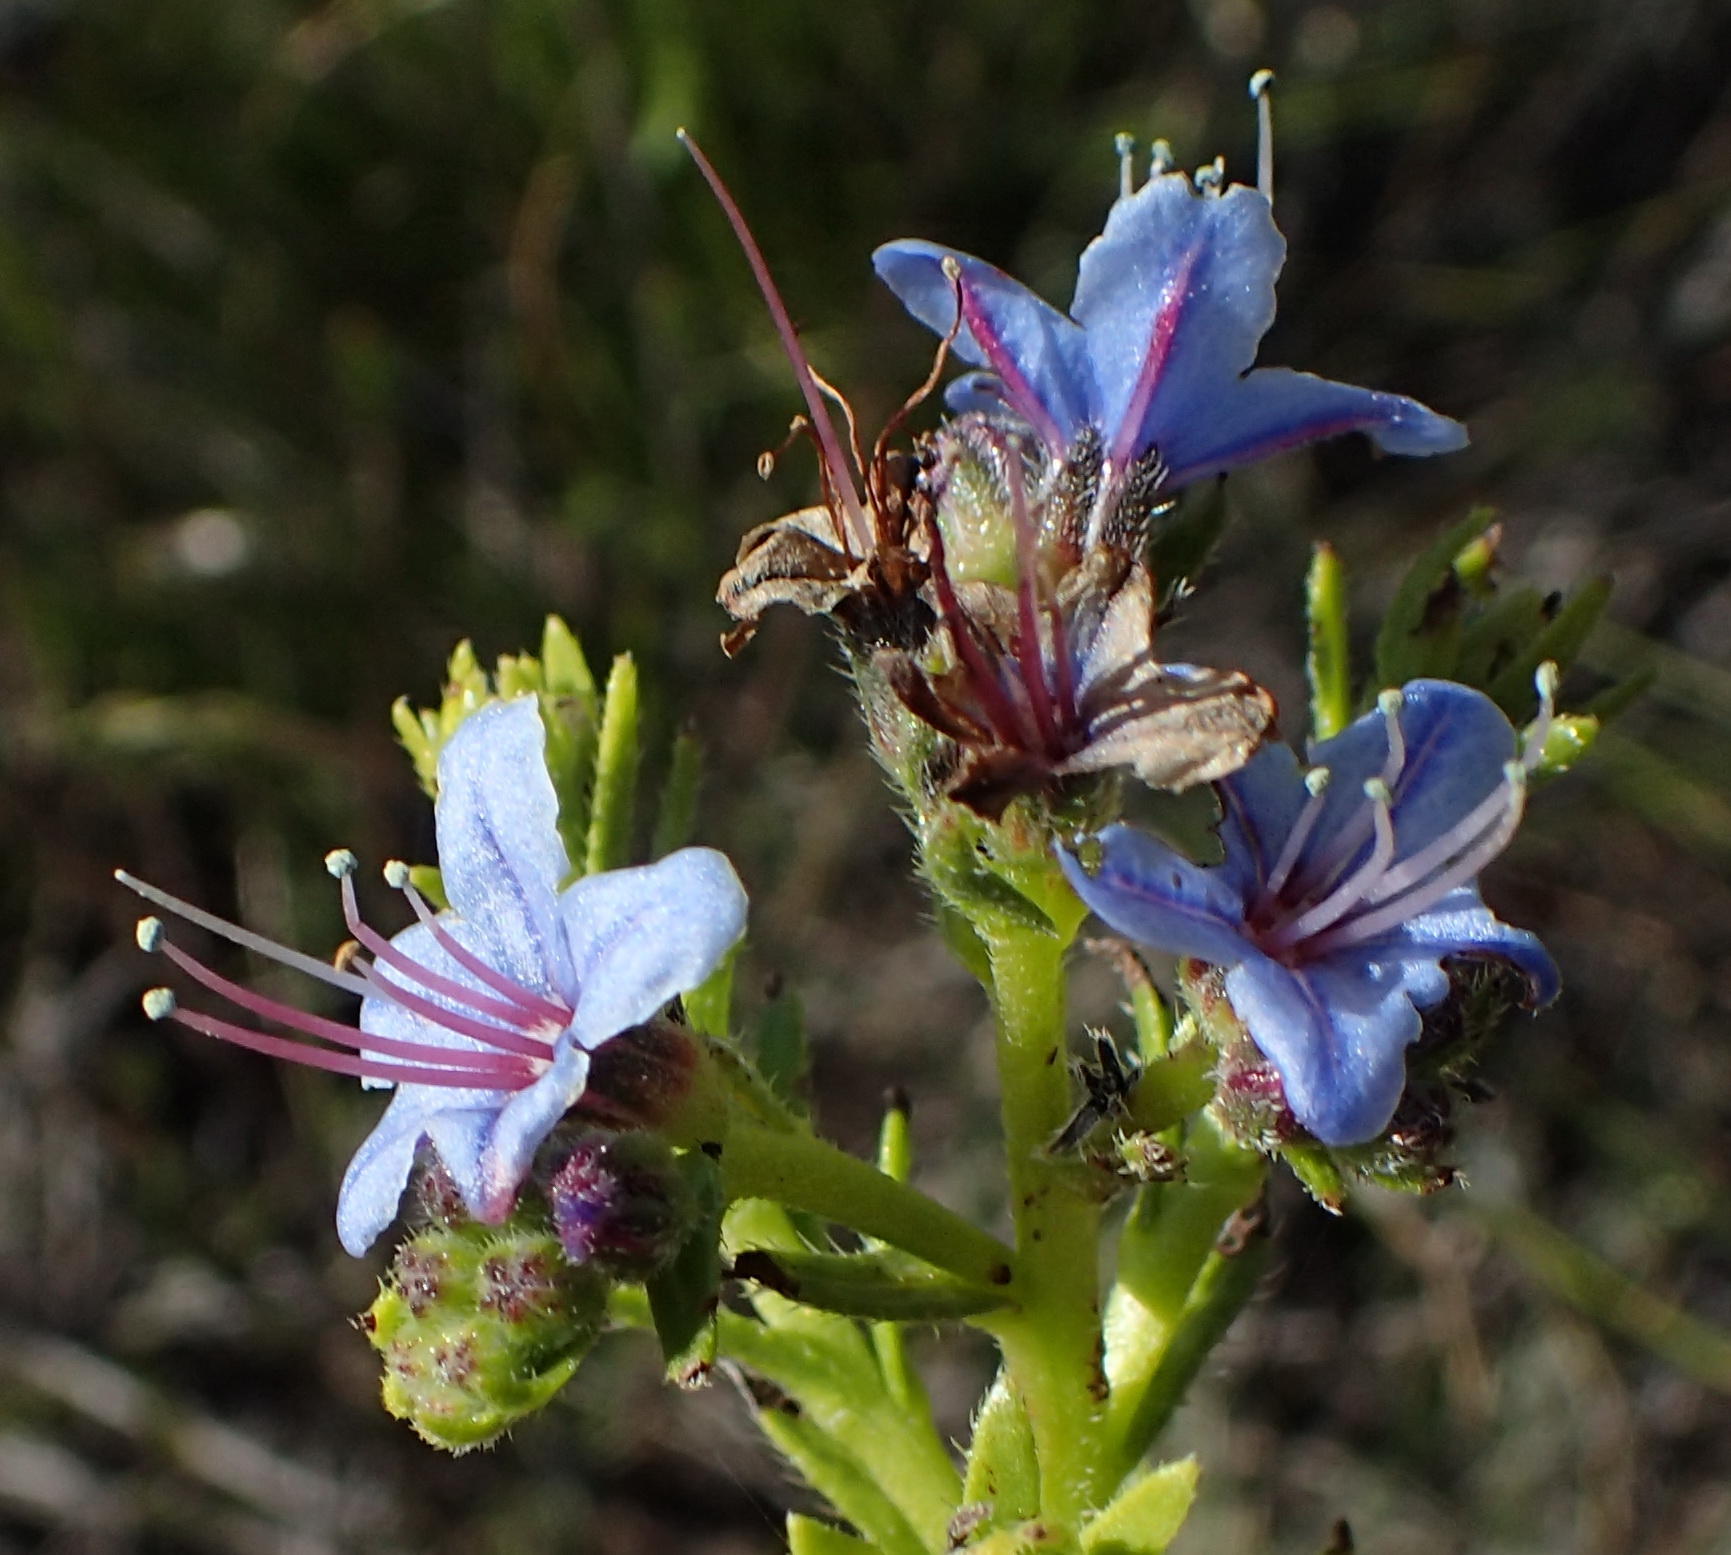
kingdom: Plantae
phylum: Tracheophyta
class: Magnoliopsida
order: Boraginales
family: Boraginaceae
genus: Lobostemon
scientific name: Lobostemon paniculatus
